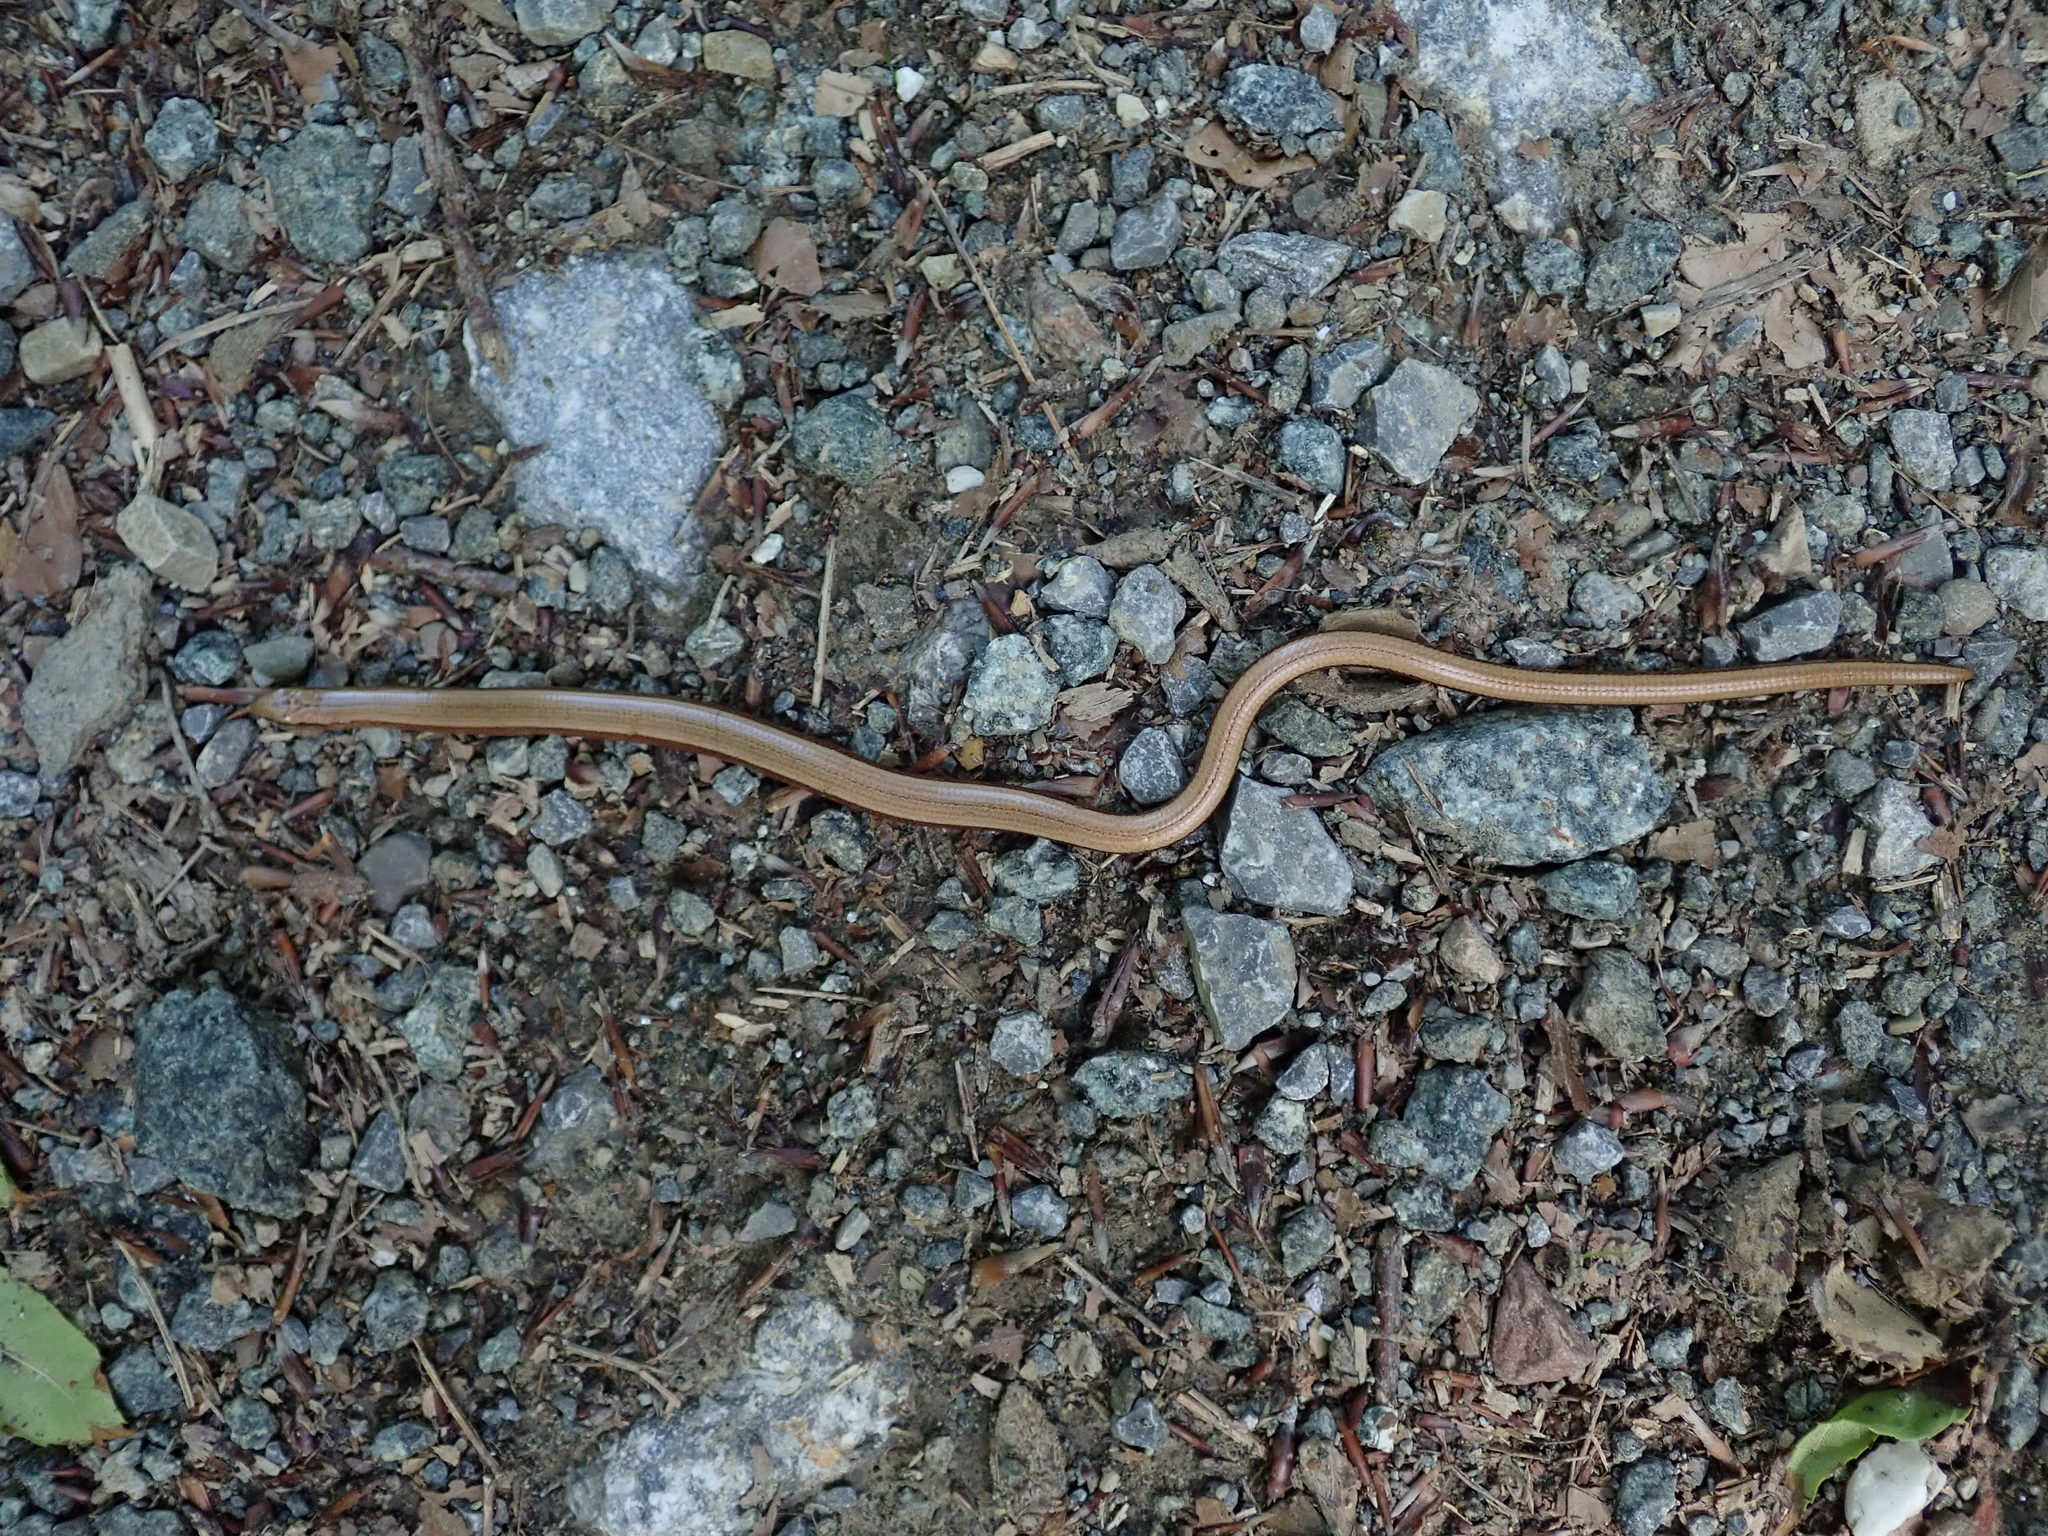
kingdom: Animalia
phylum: Chordata
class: Squamata
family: Anguidae
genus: Anguis
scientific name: Anguis fragilis
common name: Slow worm
